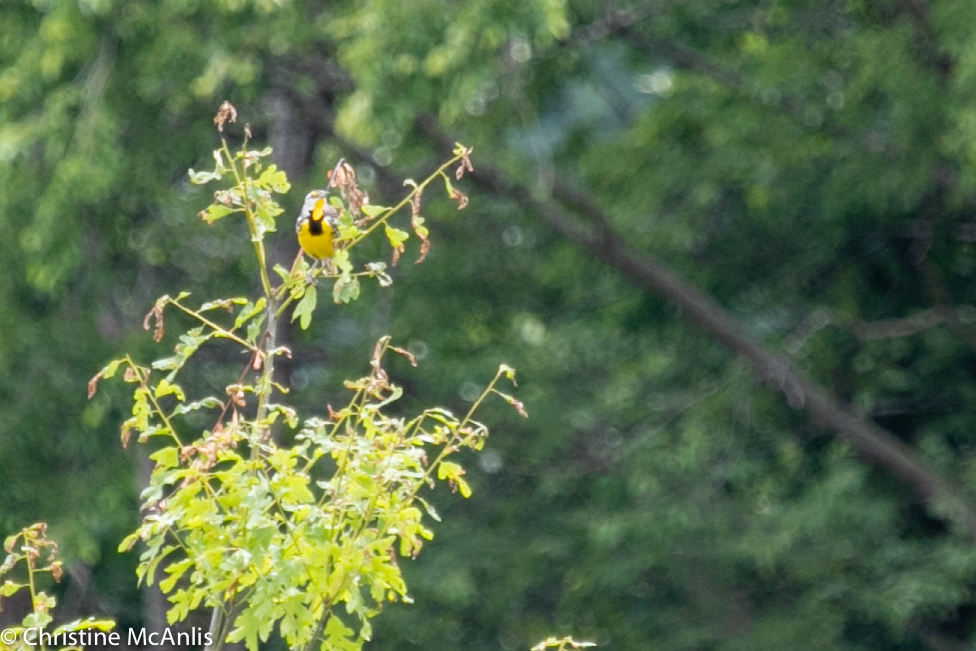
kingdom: Animalia
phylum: Chordata
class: Aves
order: Passeriformes
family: Icteridae
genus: Sturnella
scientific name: Sturnella magna
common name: Eastern meadowlark
